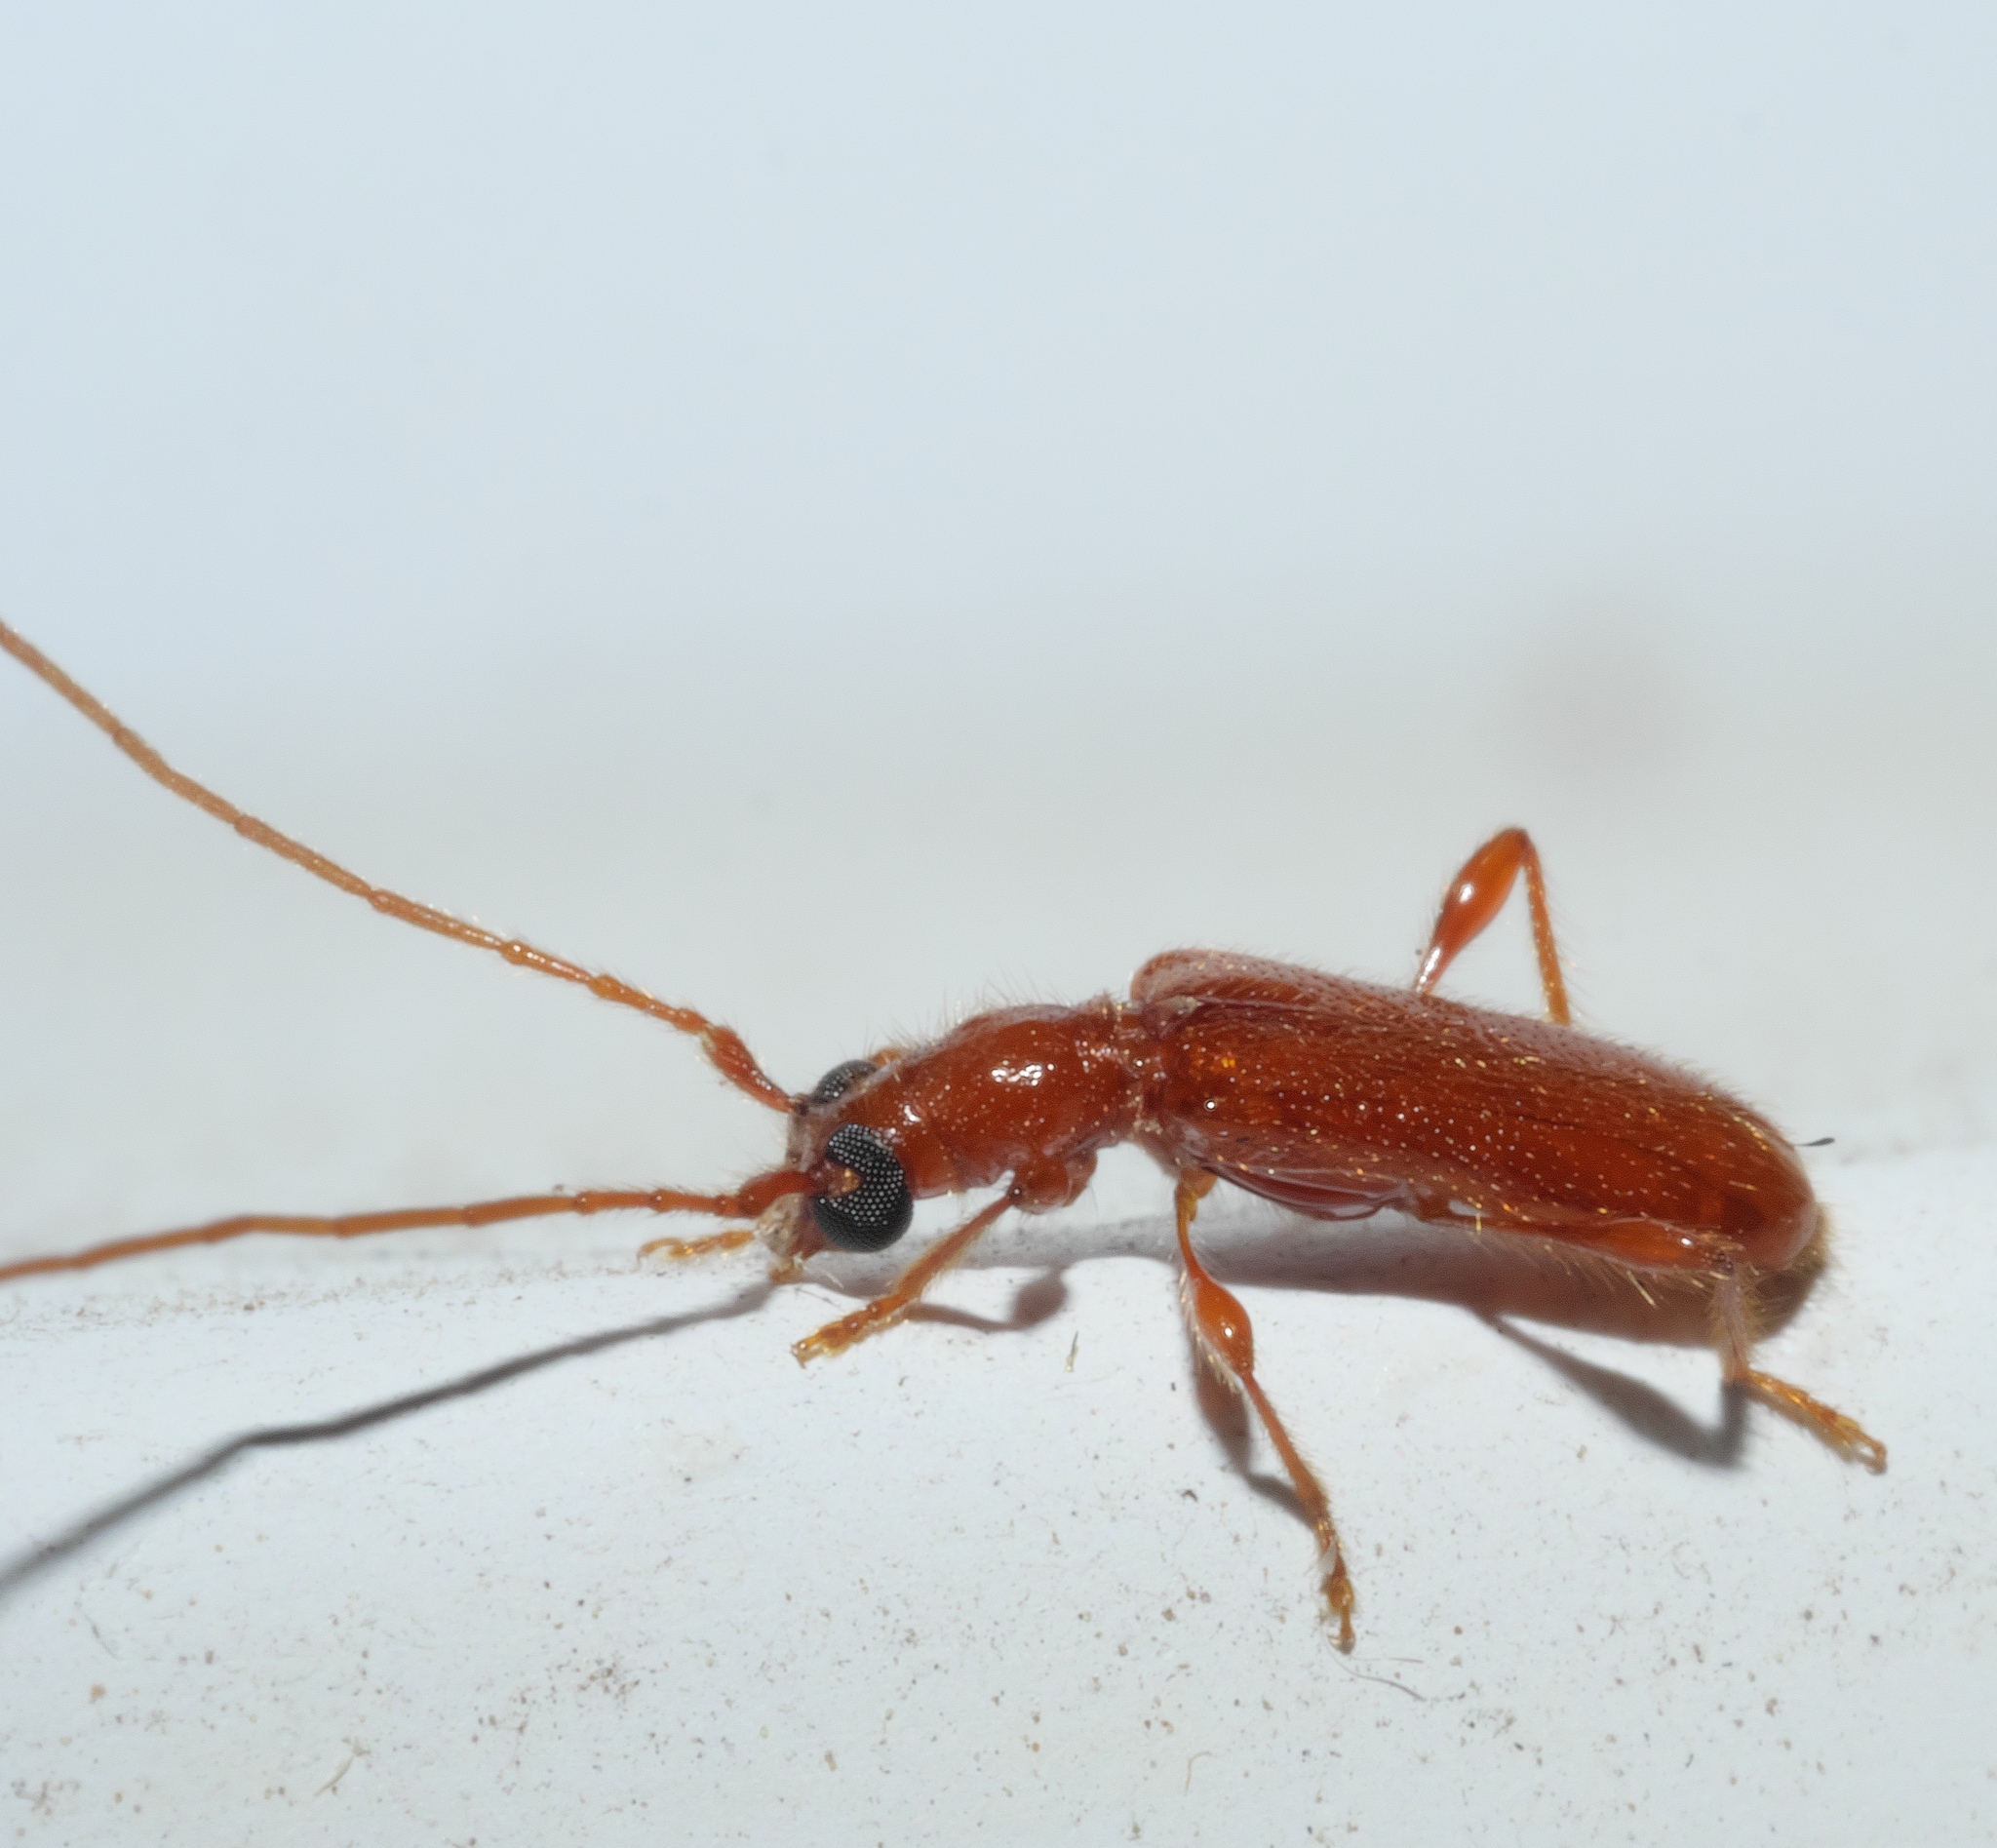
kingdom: Animalia
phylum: Arthropoda
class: Insecta
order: Coleoptera
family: Cerambycidae
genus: Obrium
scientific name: Obrium rufulum
